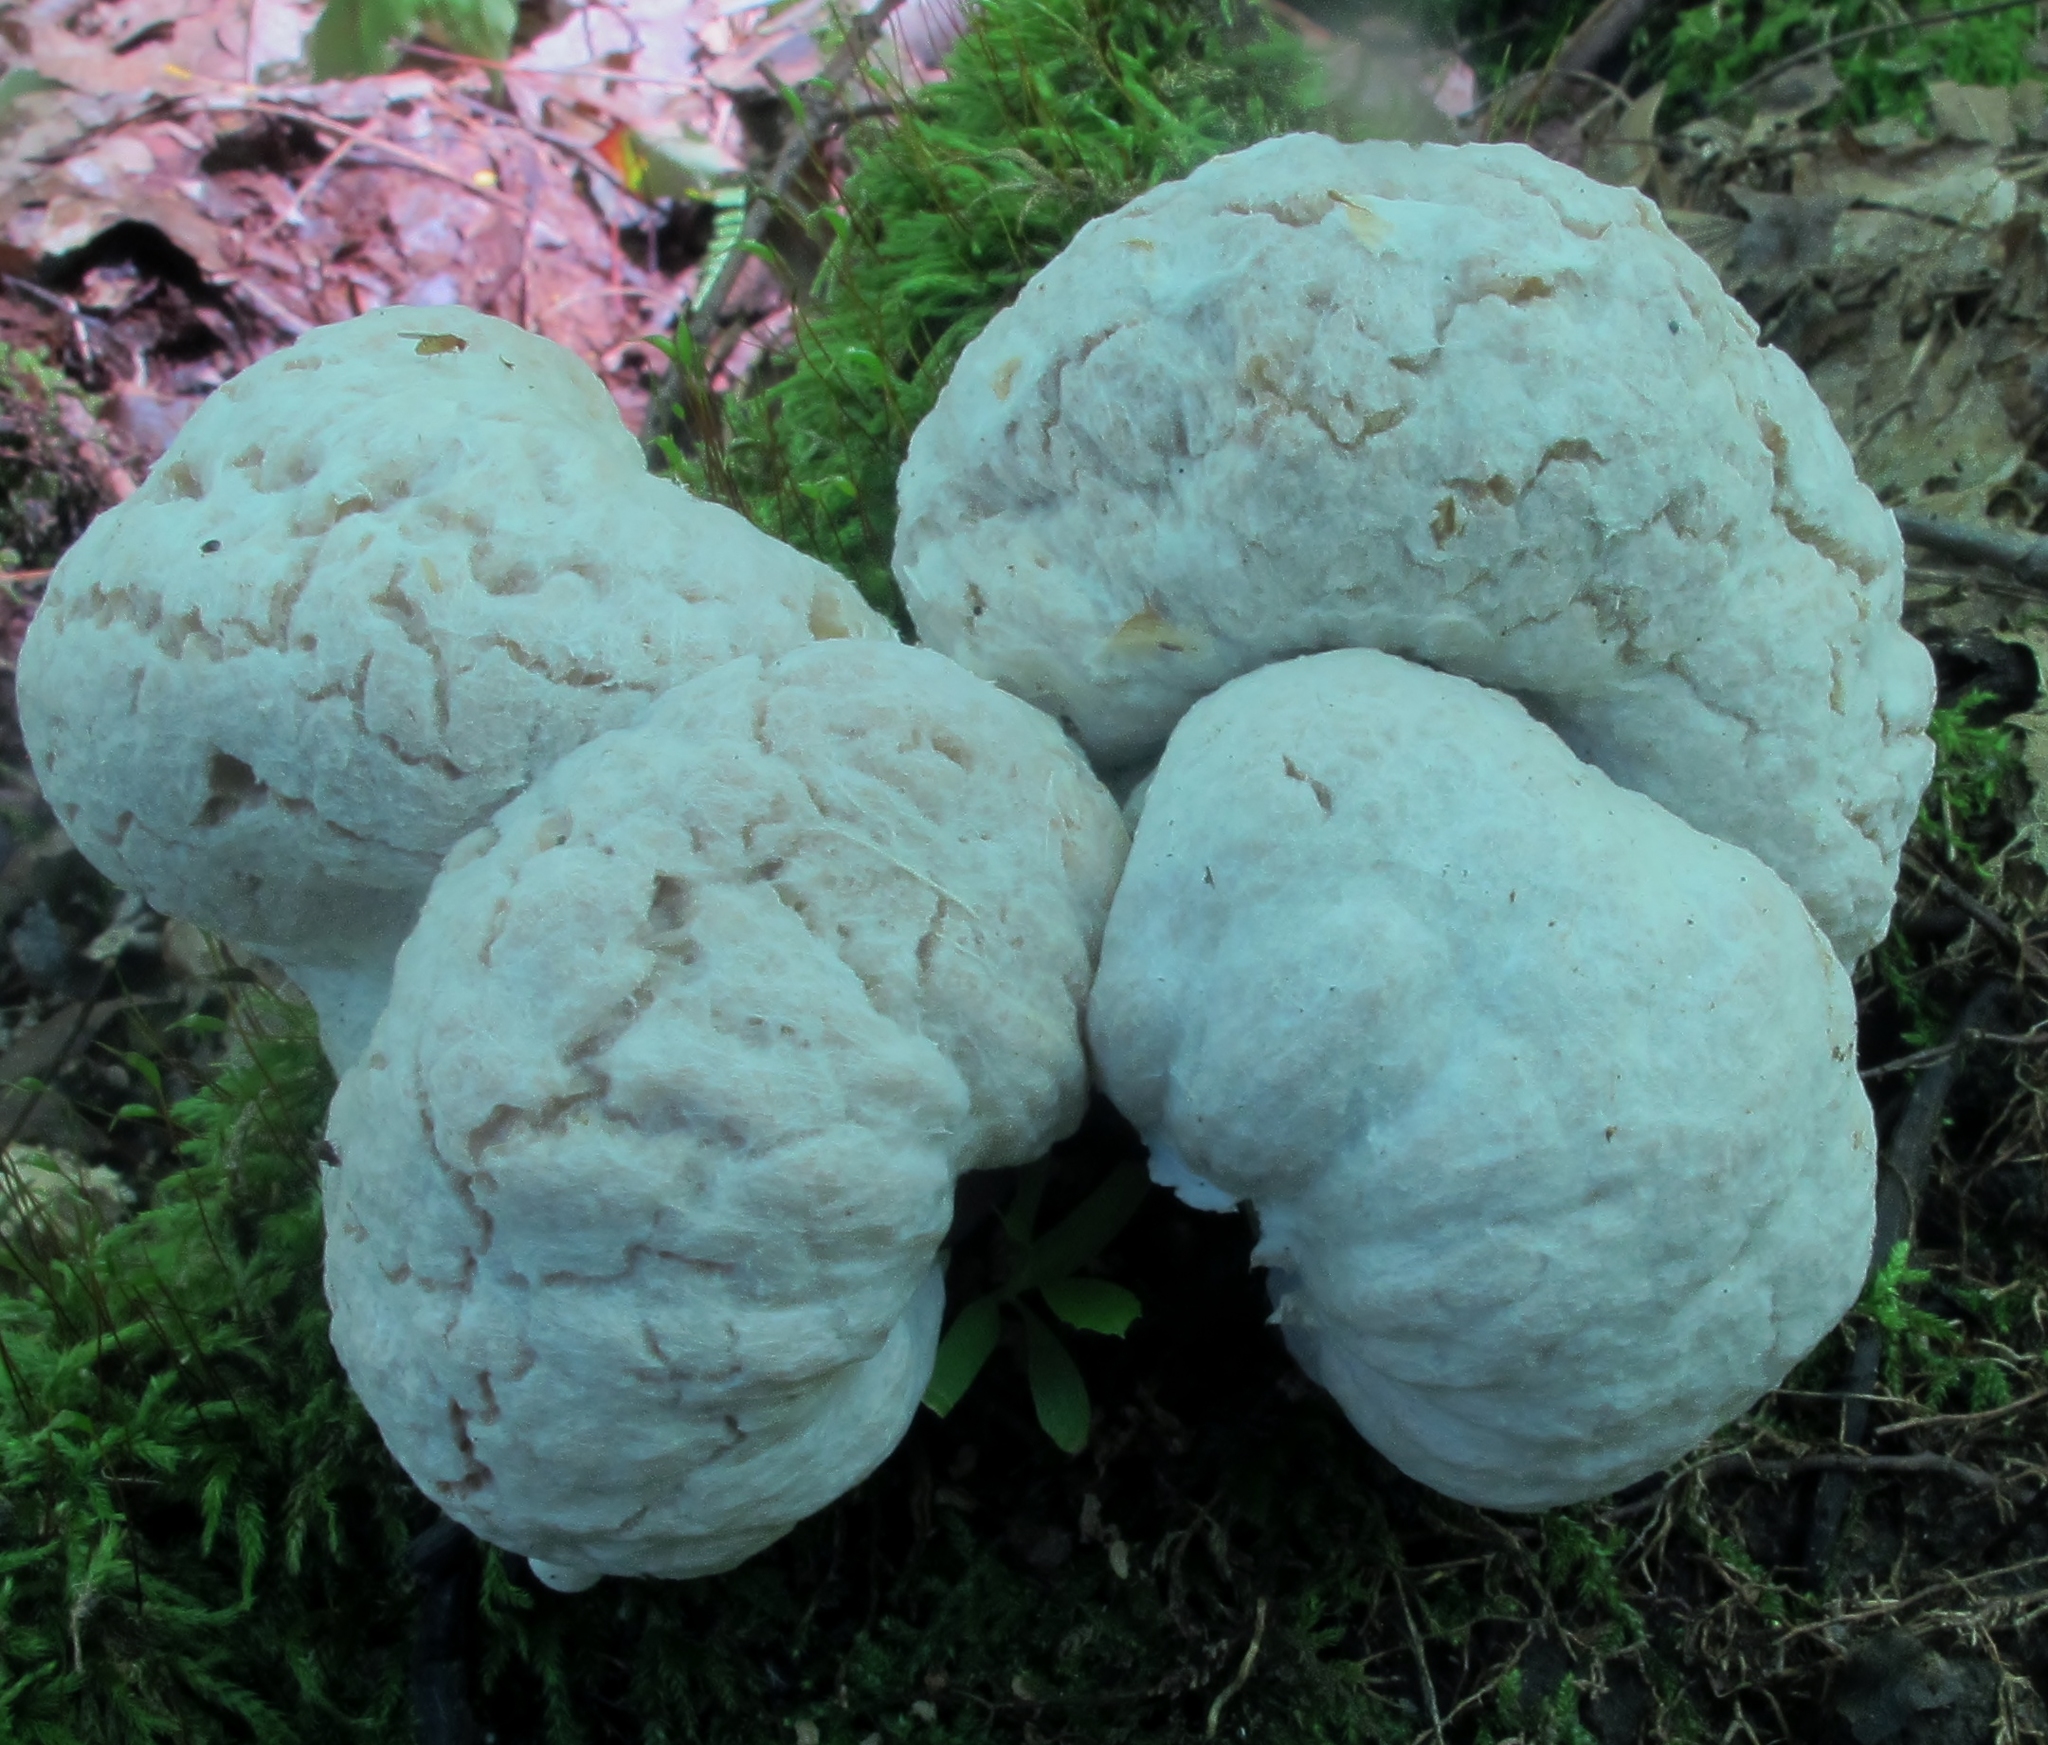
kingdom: Fungi
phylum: Basidiomycota
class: Agaricomycetes
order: Agaricales
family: Entolomataceae
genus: Entoloma
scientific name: Entoloma abortivum
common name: Aborted entoloma
